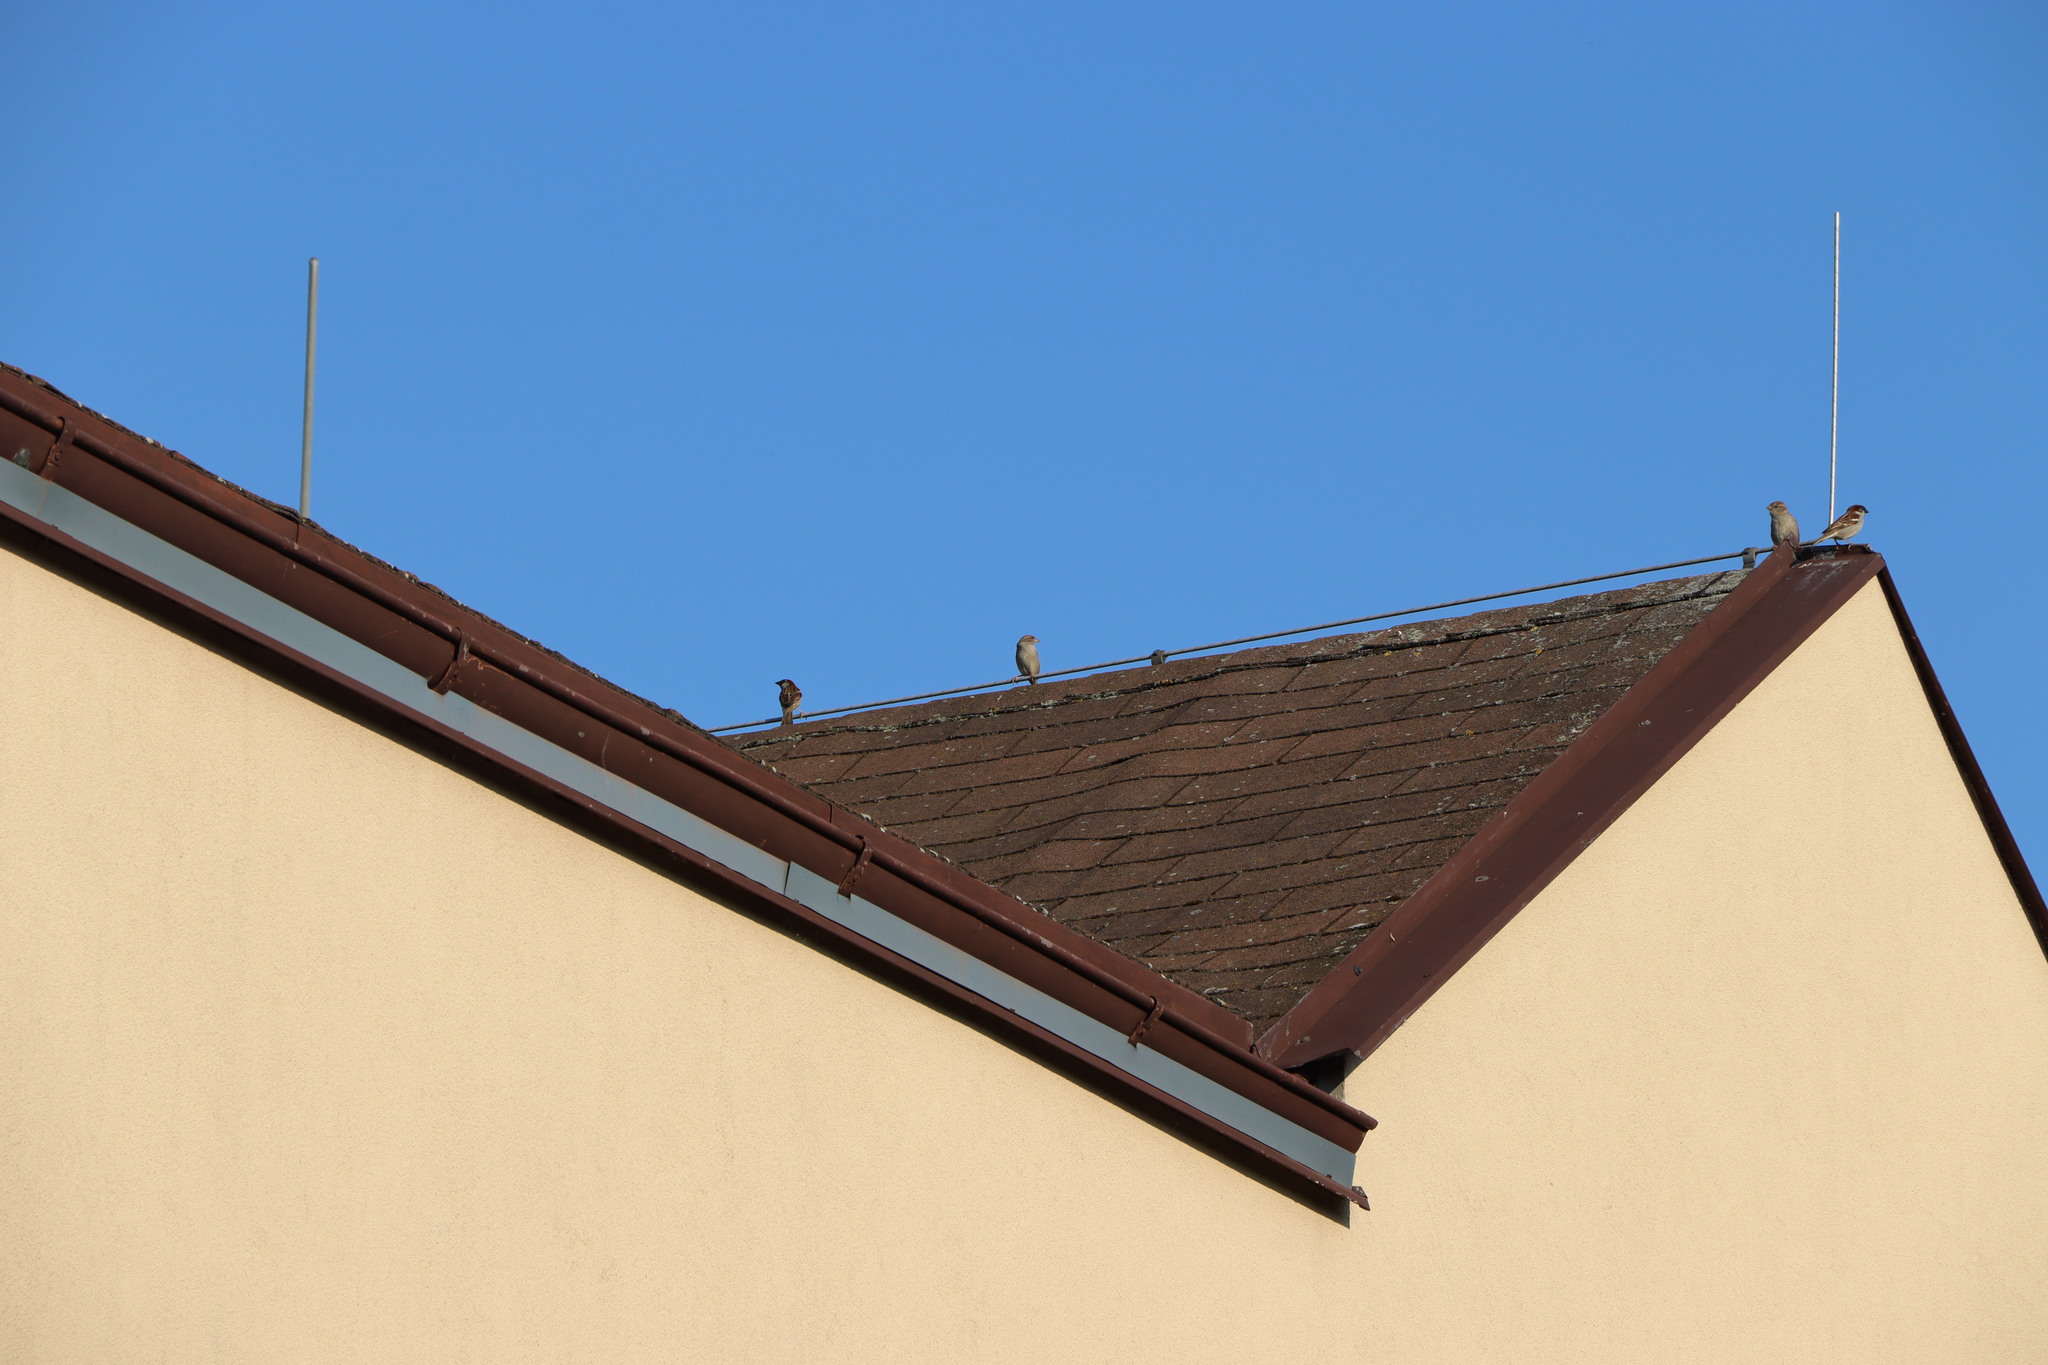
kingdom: Animalia
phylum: Chordata
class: Aves
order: Passeriformes
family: Passeridae
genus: Passer
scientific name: Passer domesticus
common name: House sparrow
